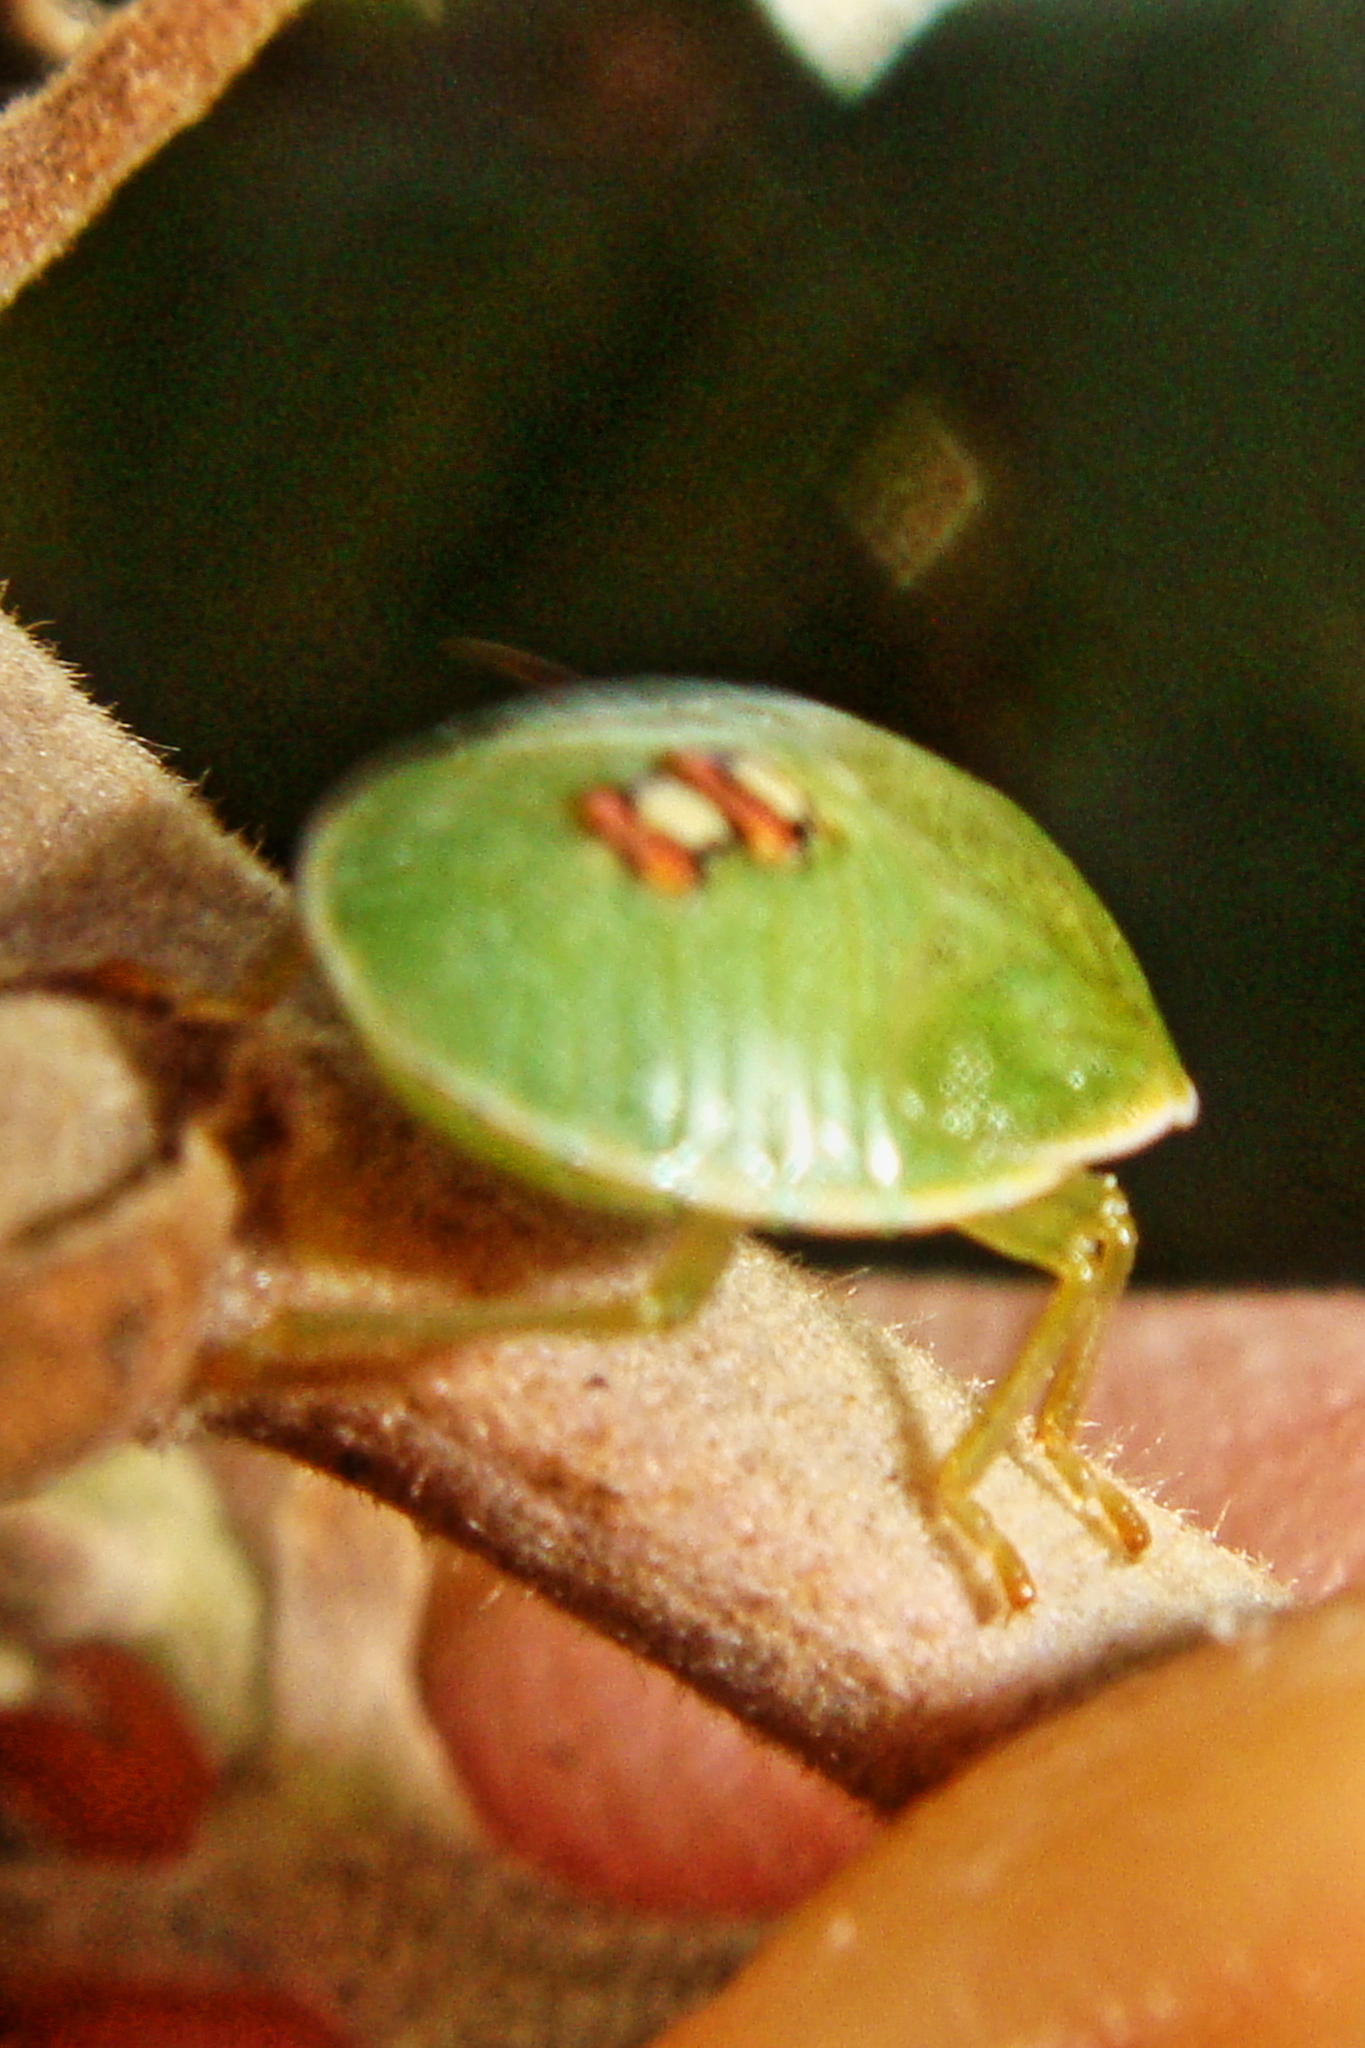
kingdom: Animalia
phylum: Arthropoda
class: Insecta
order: Hemiptera
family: Pentatomidae
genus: Acrosternum
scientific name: Acrosternum heegeri
